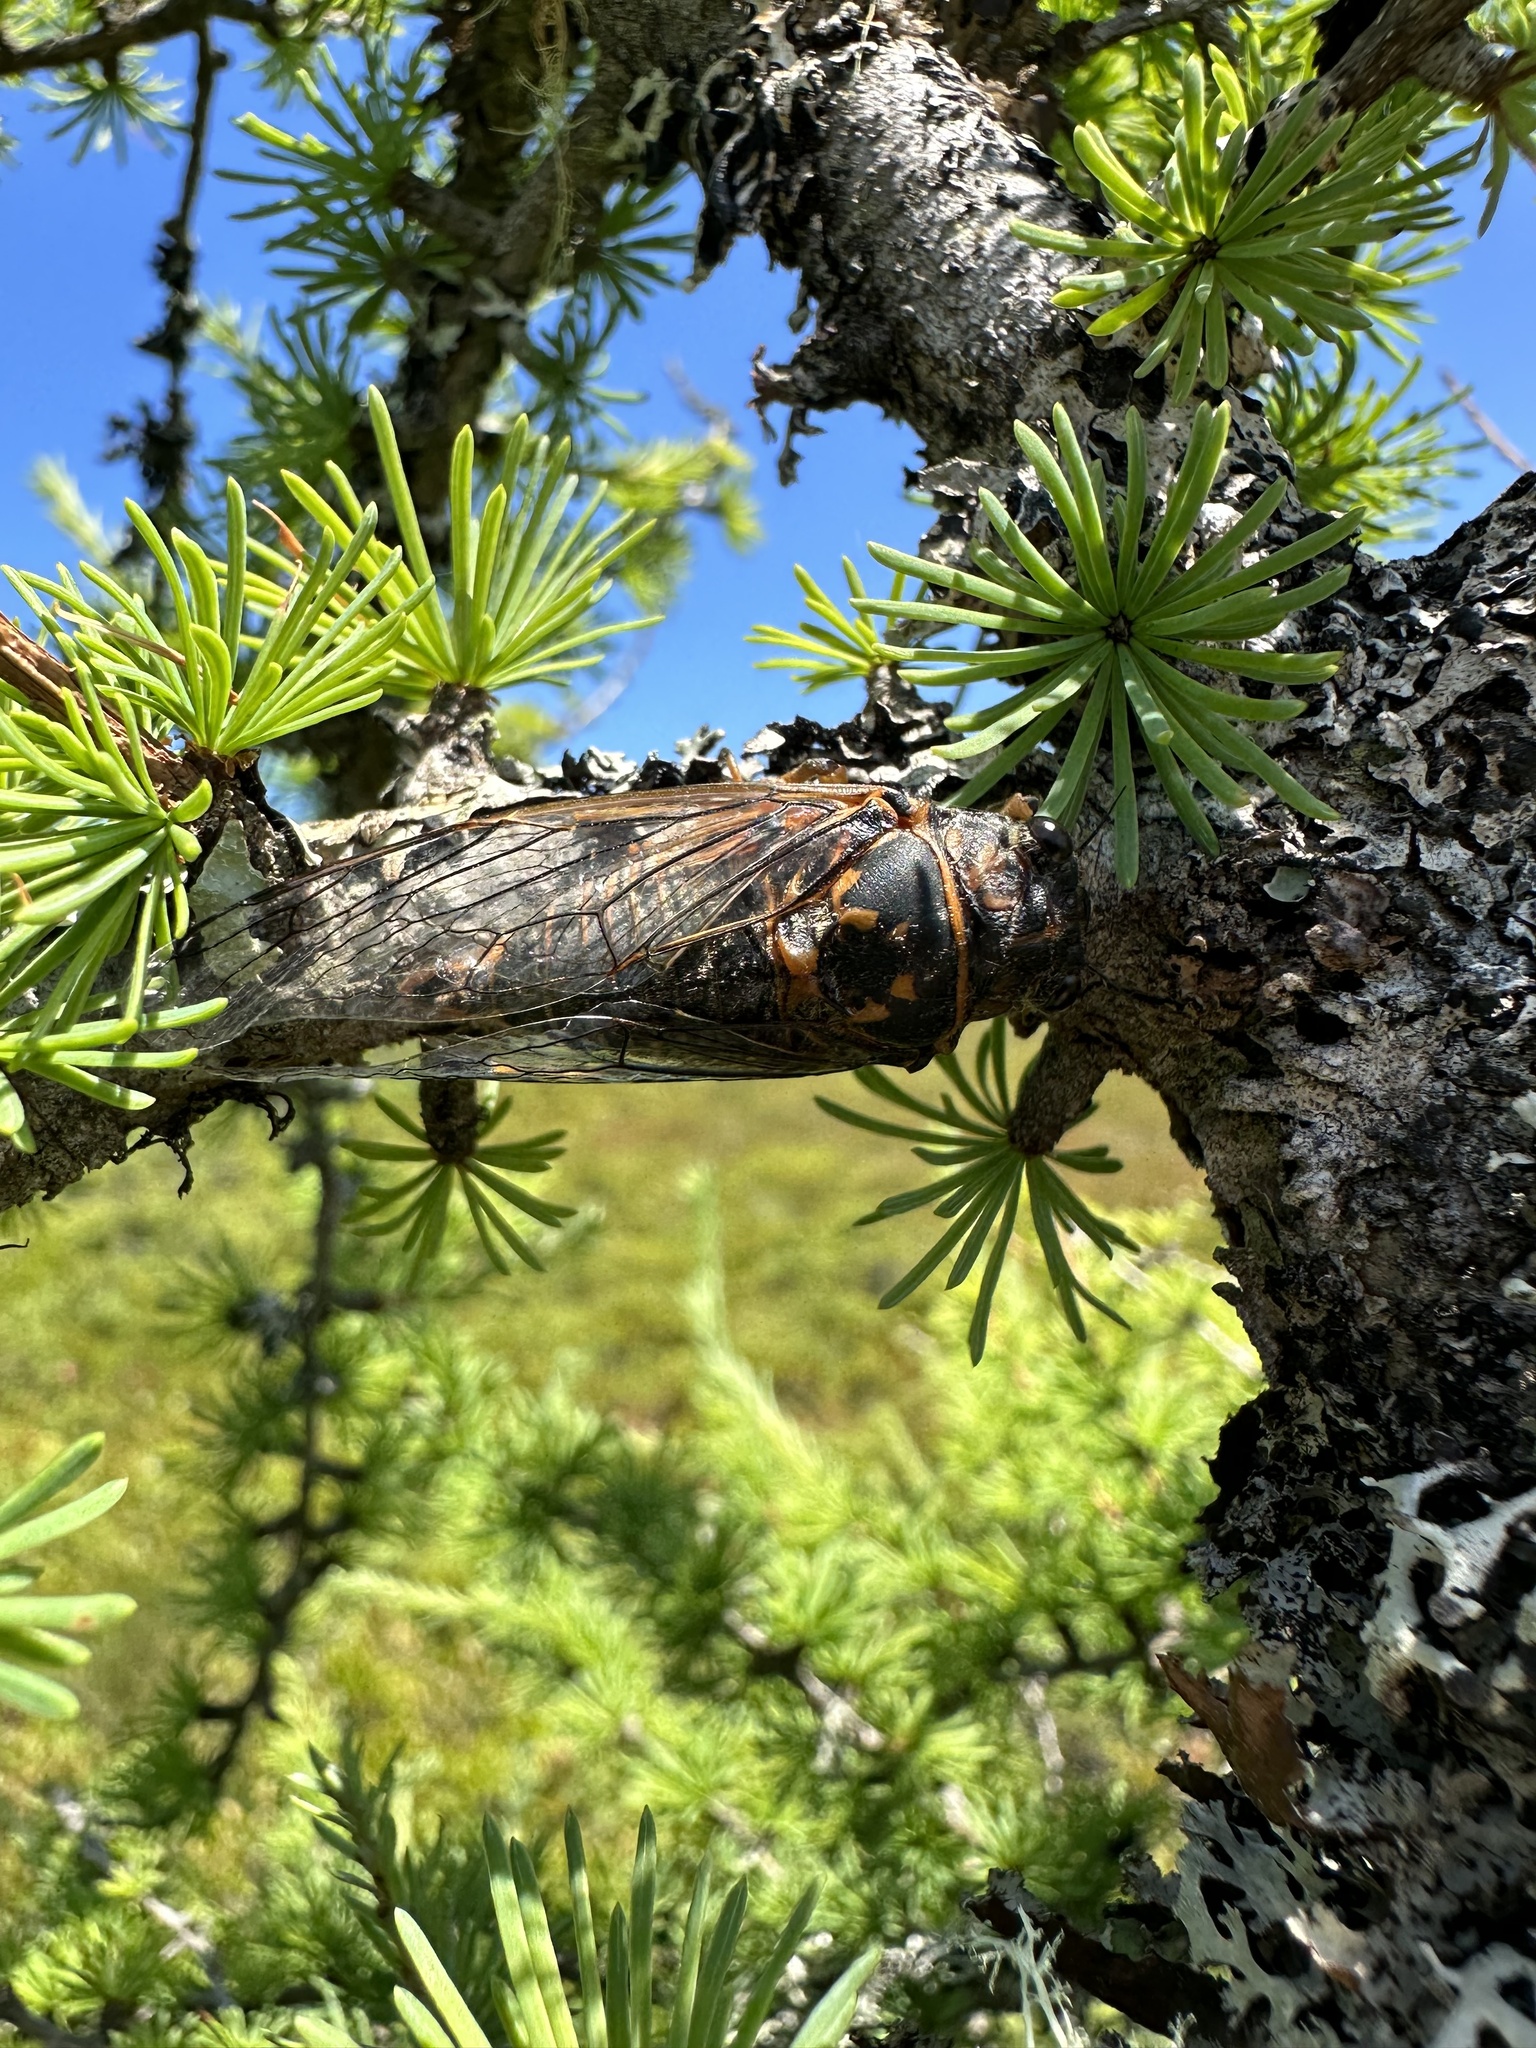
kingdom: Animalia
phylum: Arthropoda
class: Insecta
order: Hemiptera
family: Cicadidae
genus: Okanagana
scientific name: Okanagana rimosa
